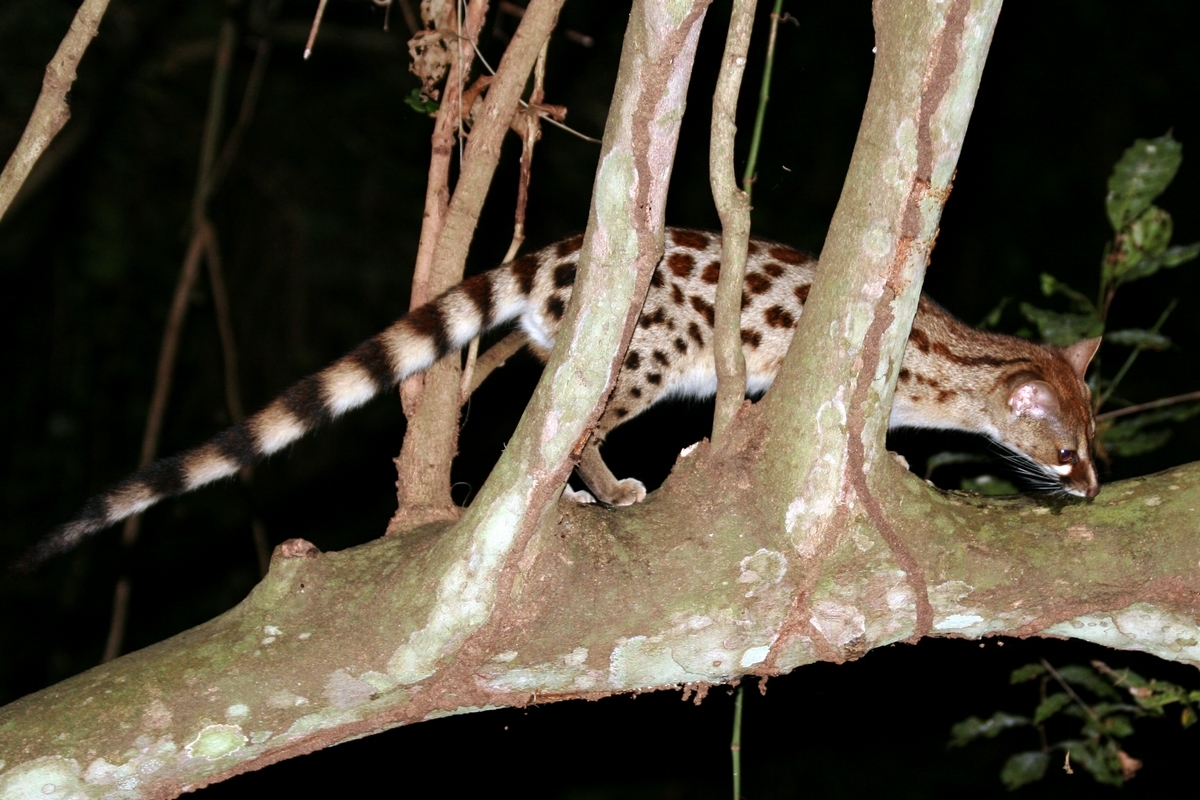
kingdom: Animalia
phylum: Chordata
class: Mammalia
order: Carnivora
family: Viverridae
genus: Genetta
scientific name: Genetta maculata
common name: Rusty-spotted genet
